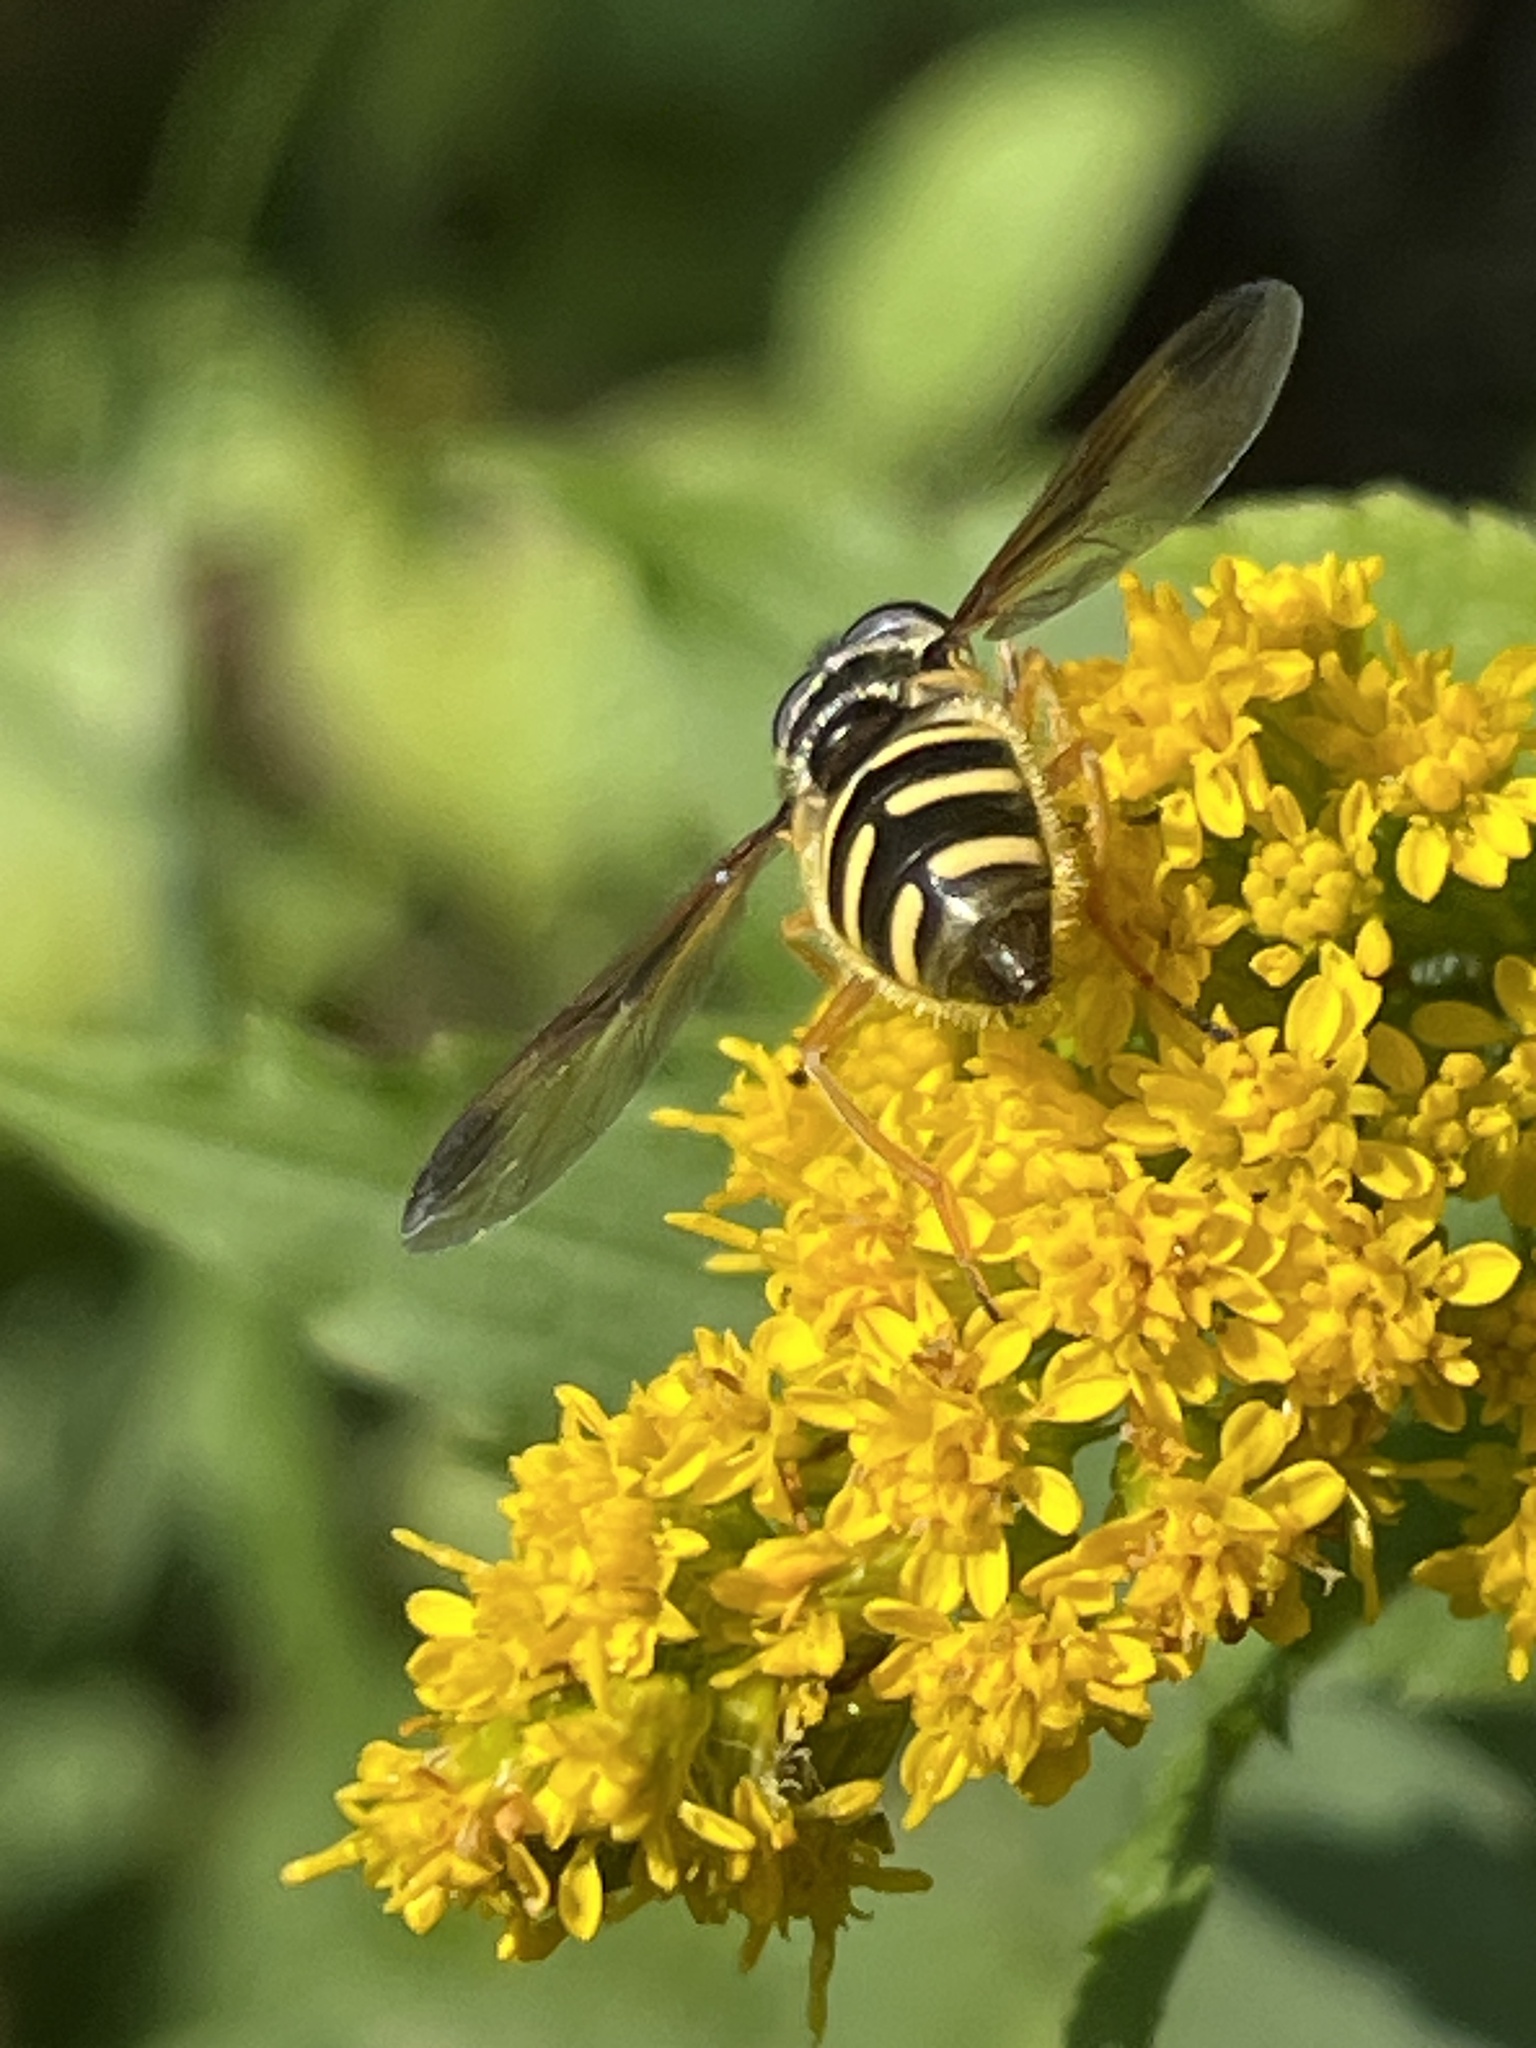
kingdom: Animalia
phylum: Arthropoda
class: Insecta
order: Diptera
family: Syrphidae
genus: Sericomyia
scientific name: Sericomyia chrysotoxoides
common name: Oblique-banded pond fly
